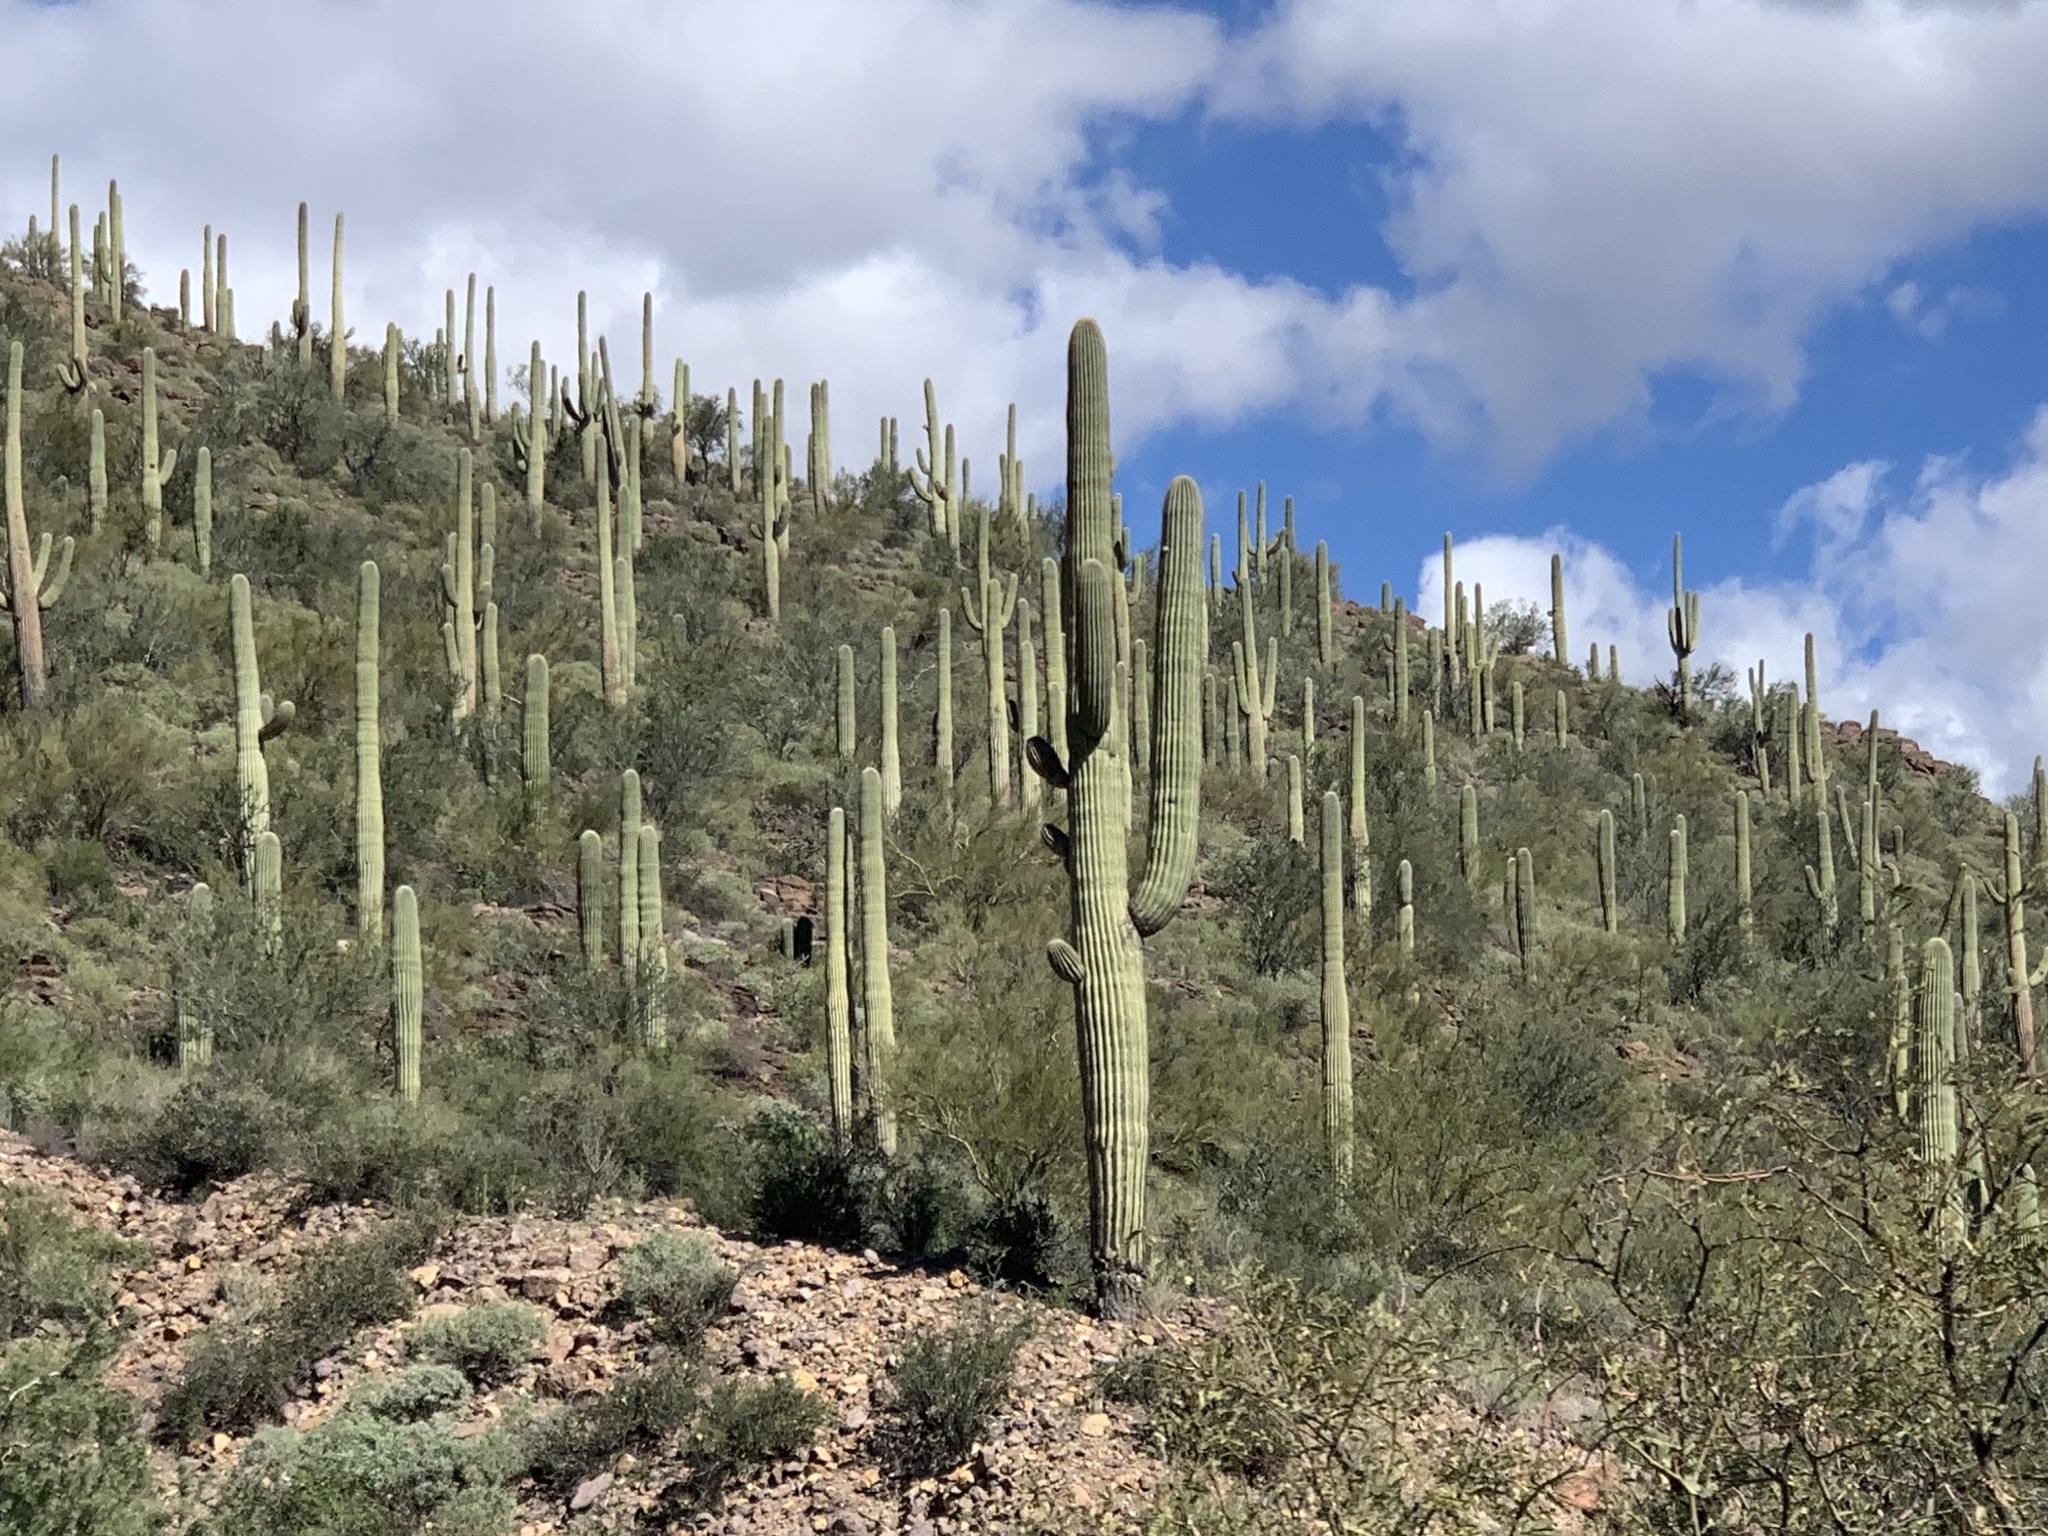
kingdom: Plantae
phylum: Tracheophyta
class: Magnoliopsida
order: Caryophyllales
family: Cactaceae
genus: Carnegiea
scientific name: Carnegiea gigantea
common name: Saguaro
